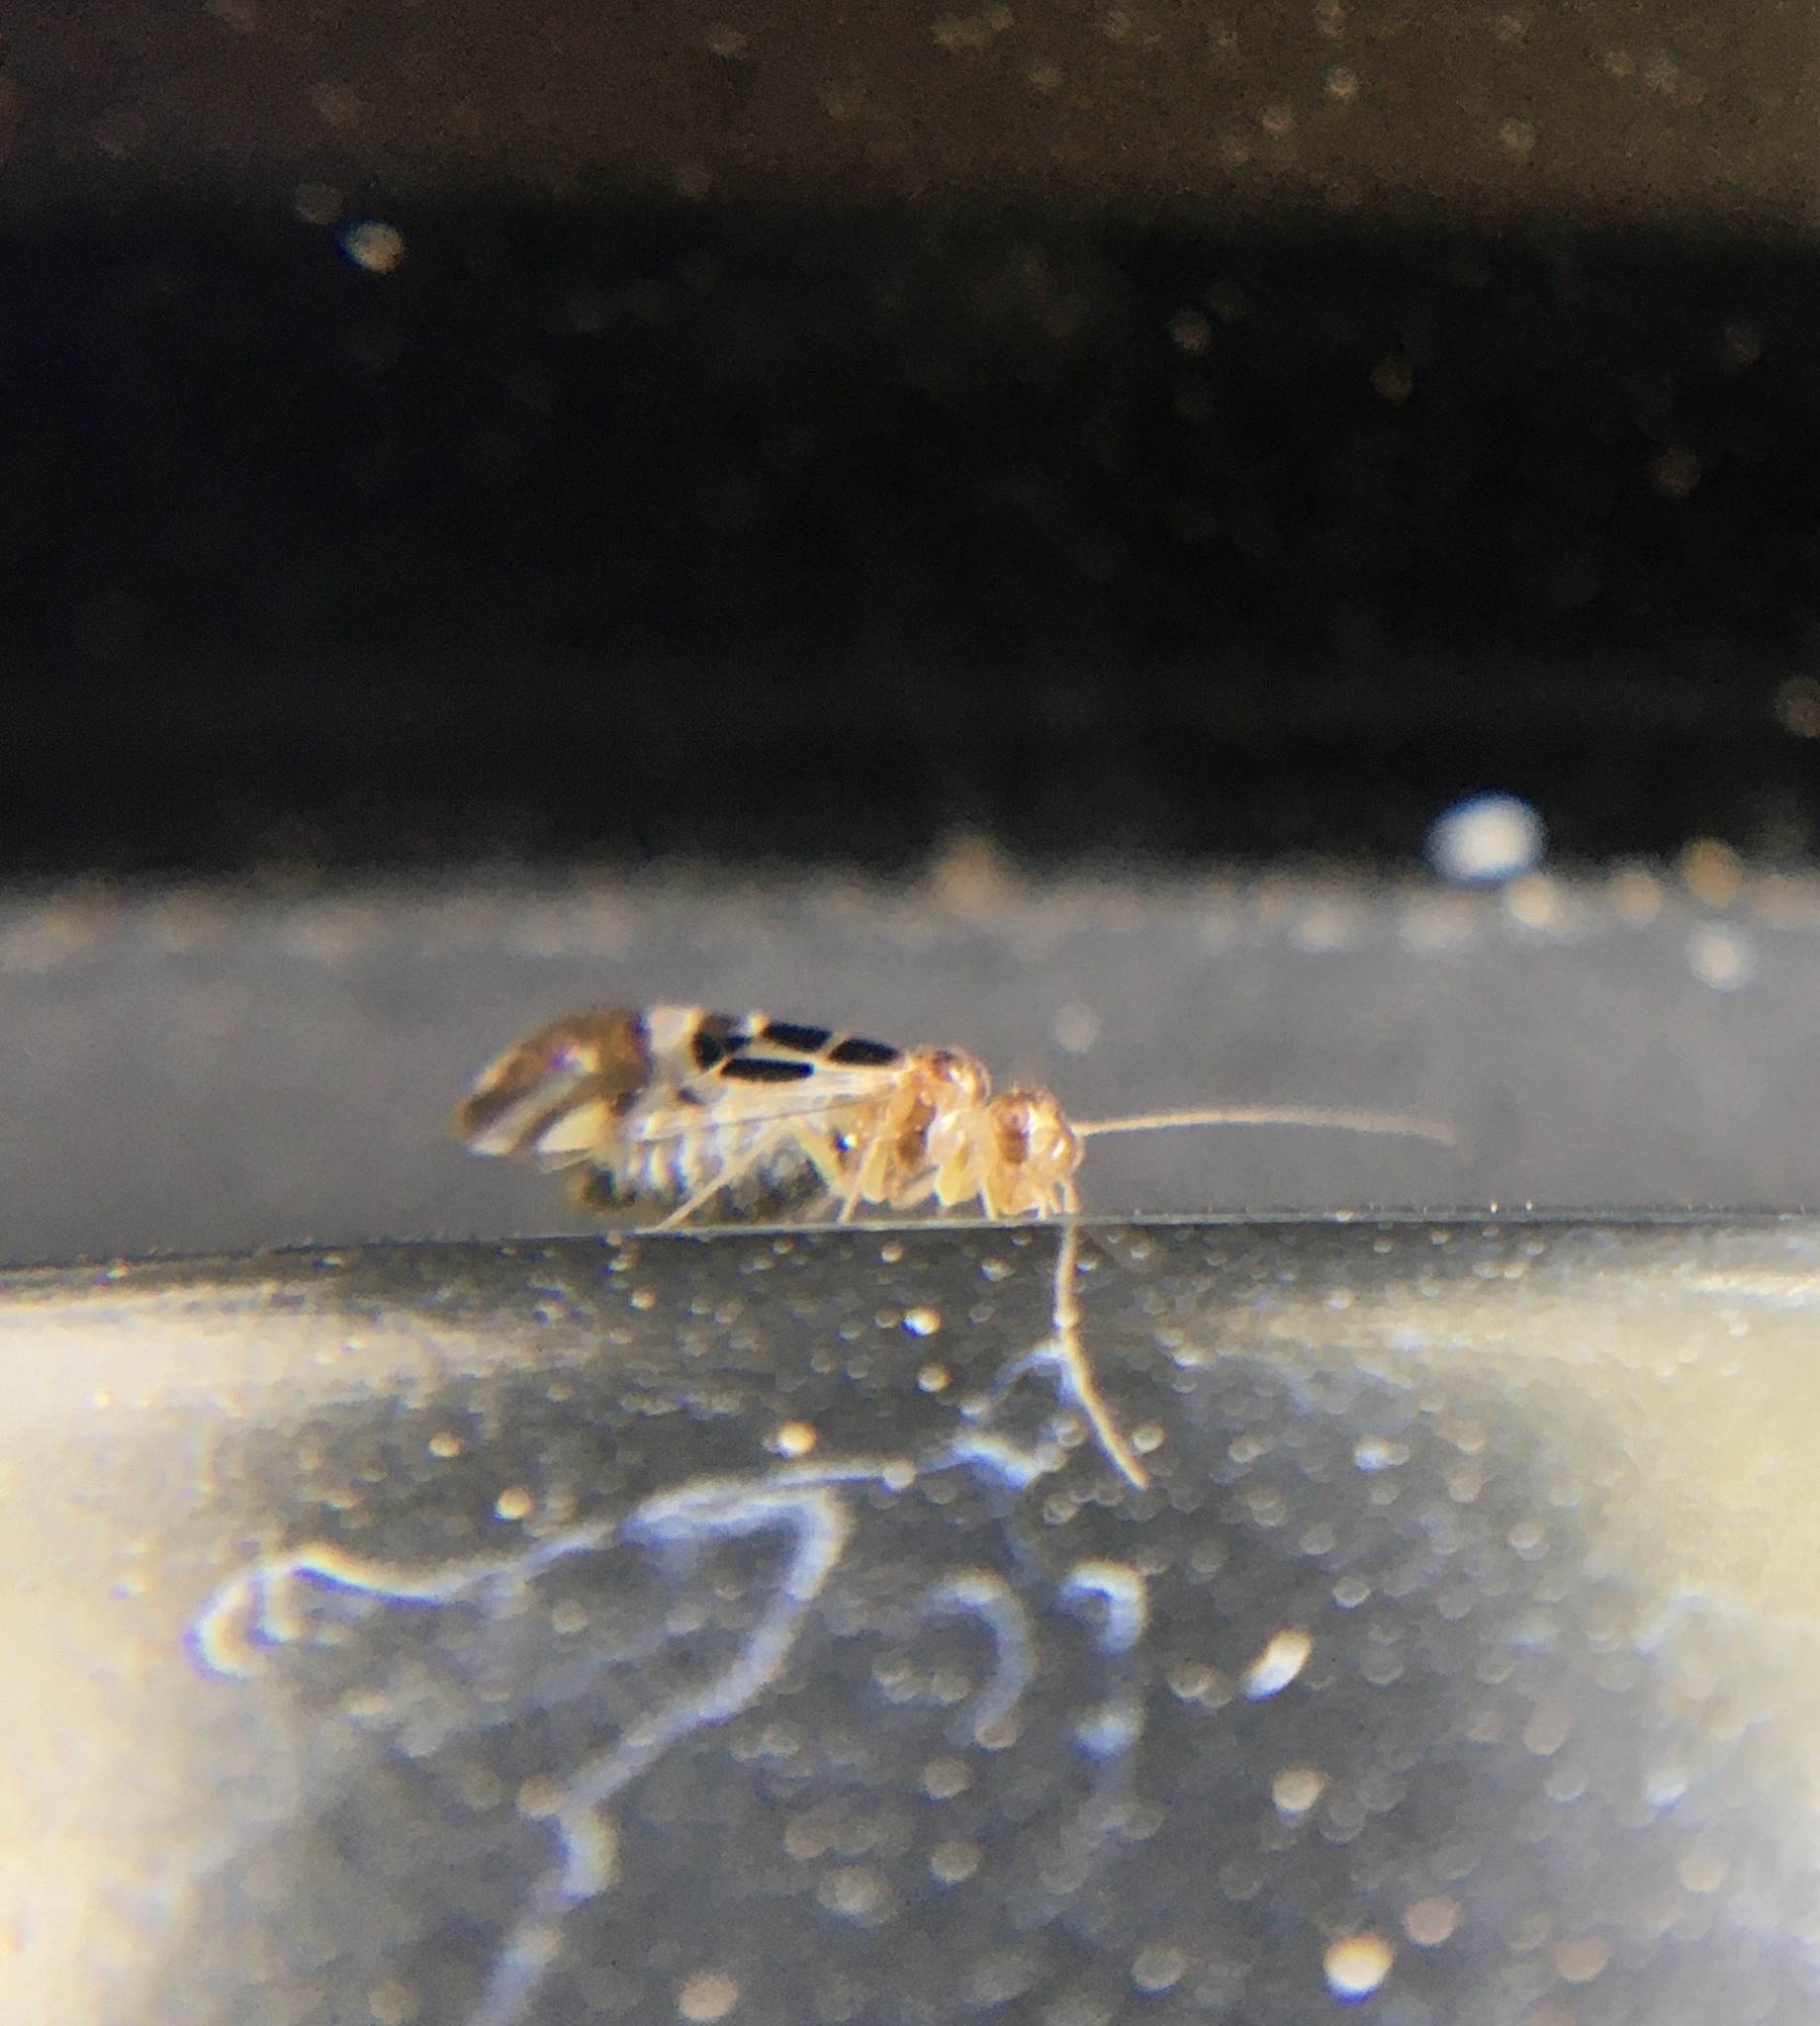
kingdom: Animalia
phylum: Arthropoda
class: Insecta
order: Psocodea
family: Stenopsocidae
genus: Graphopsocus
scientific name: Graphopsocus cruciatus
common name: Lizard bark louse
